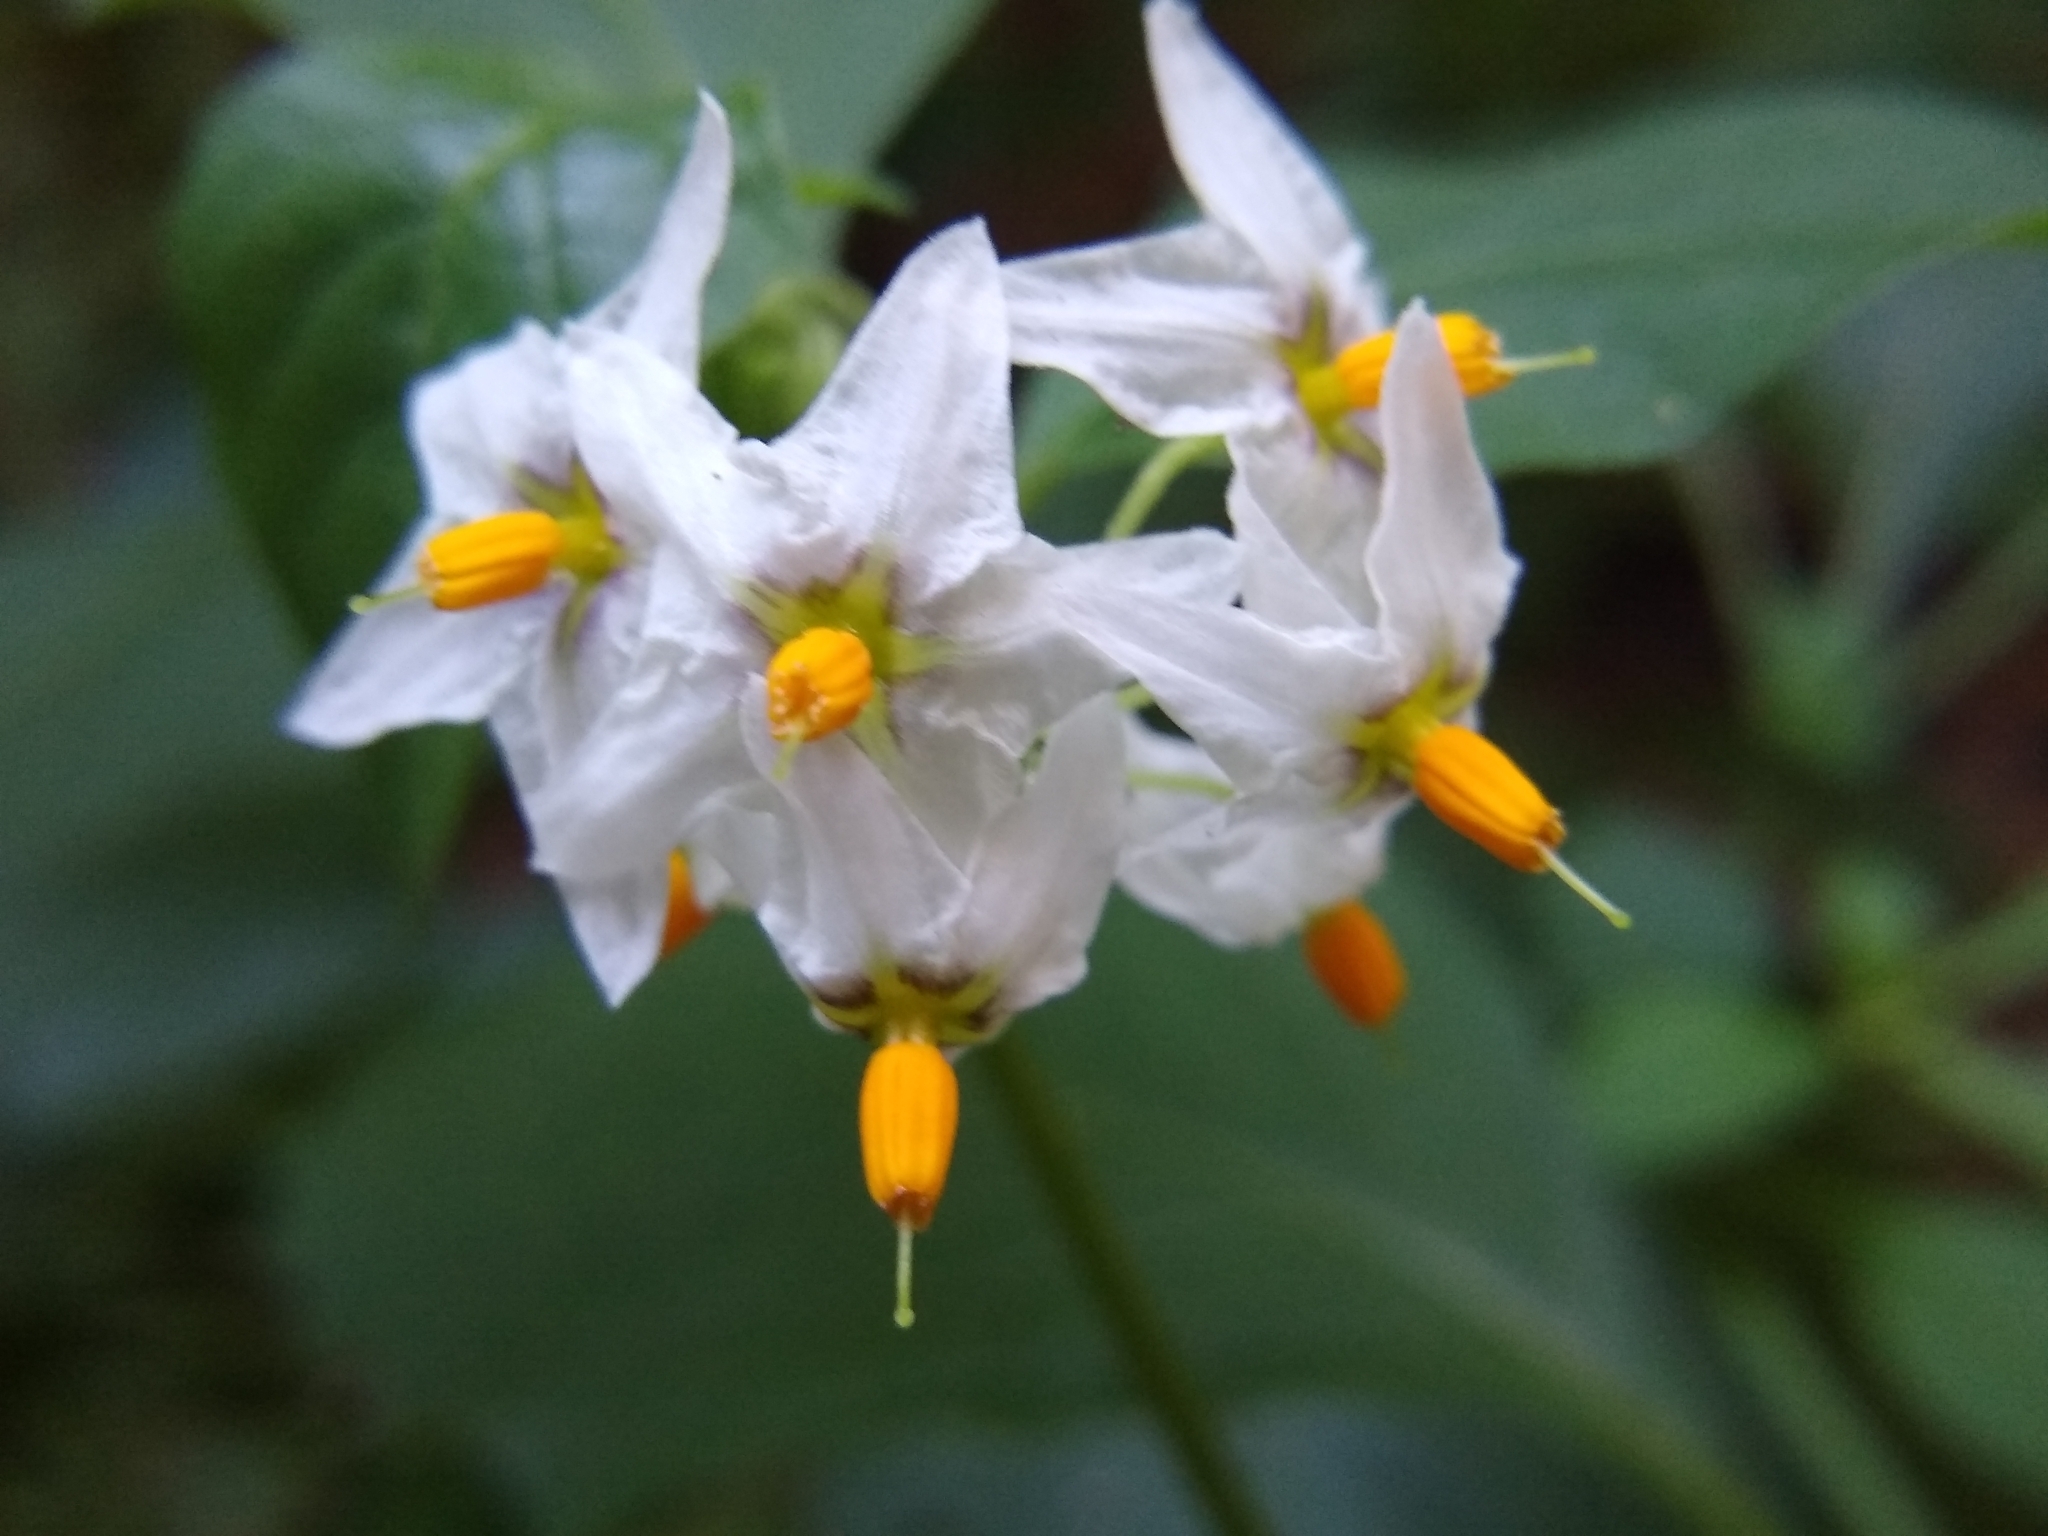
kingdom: Plantae
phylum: Tracheophyta
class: Magnoliopsida
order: Solanales
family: Solanaceae
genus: Solanum
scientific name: Solanum douglasii
